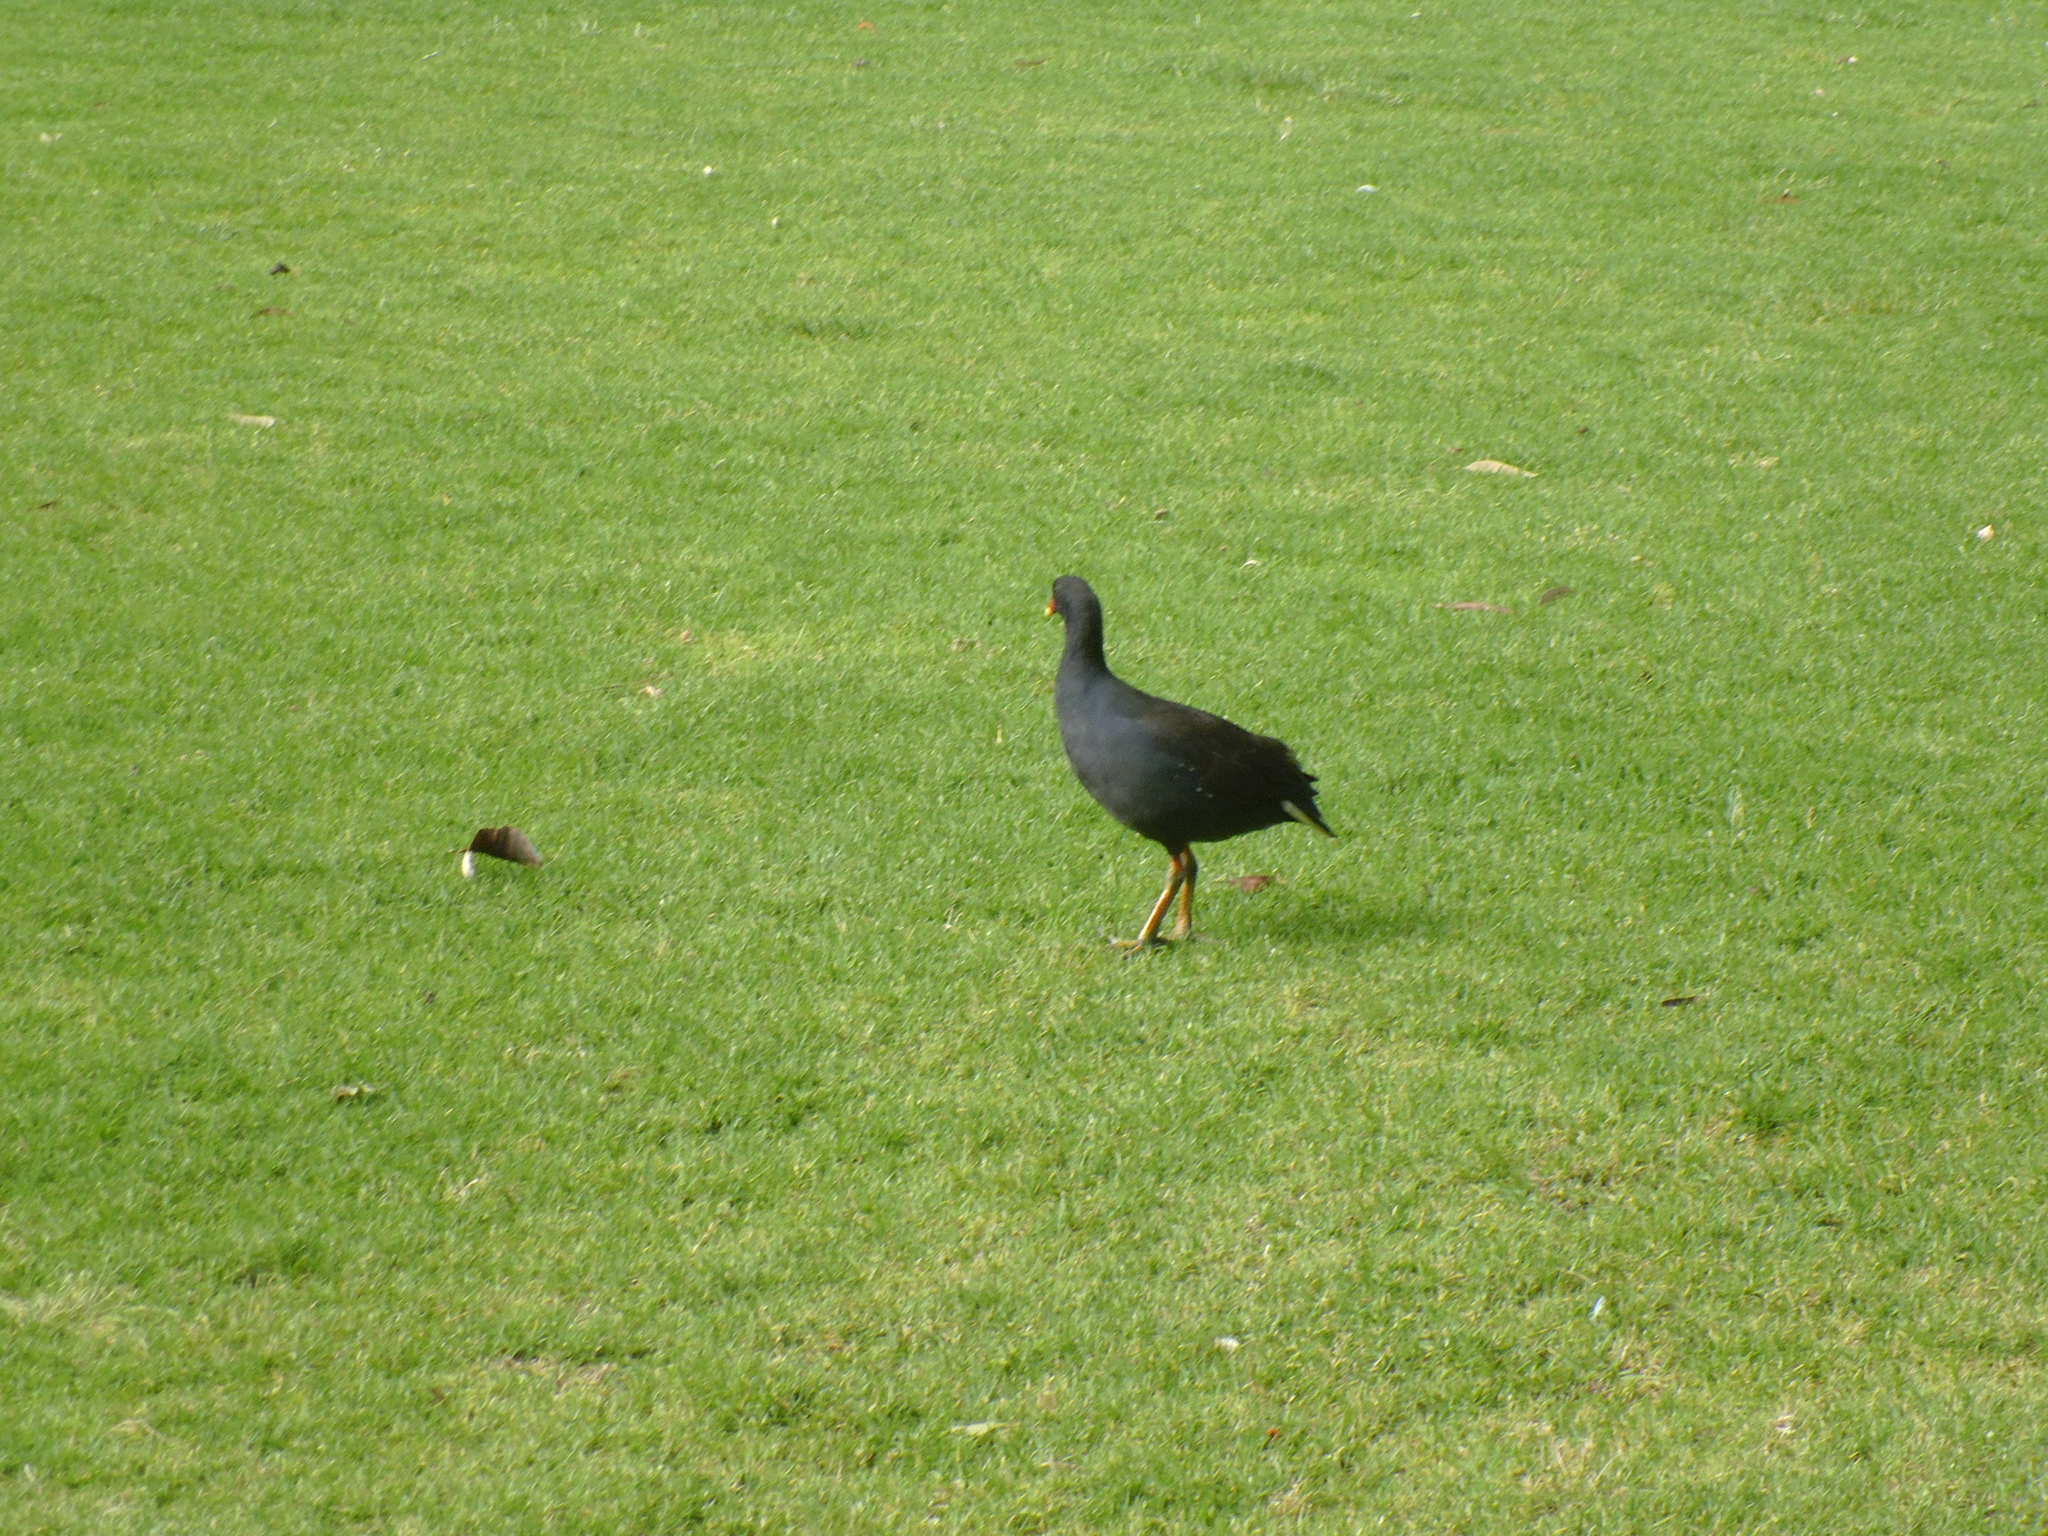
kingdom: Animalia
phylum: Chordata
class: Aves
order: Gruiformes
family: Rallidae
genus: Gallinula
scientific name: Gallinula tenebrosa
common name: Dusky moorhen
